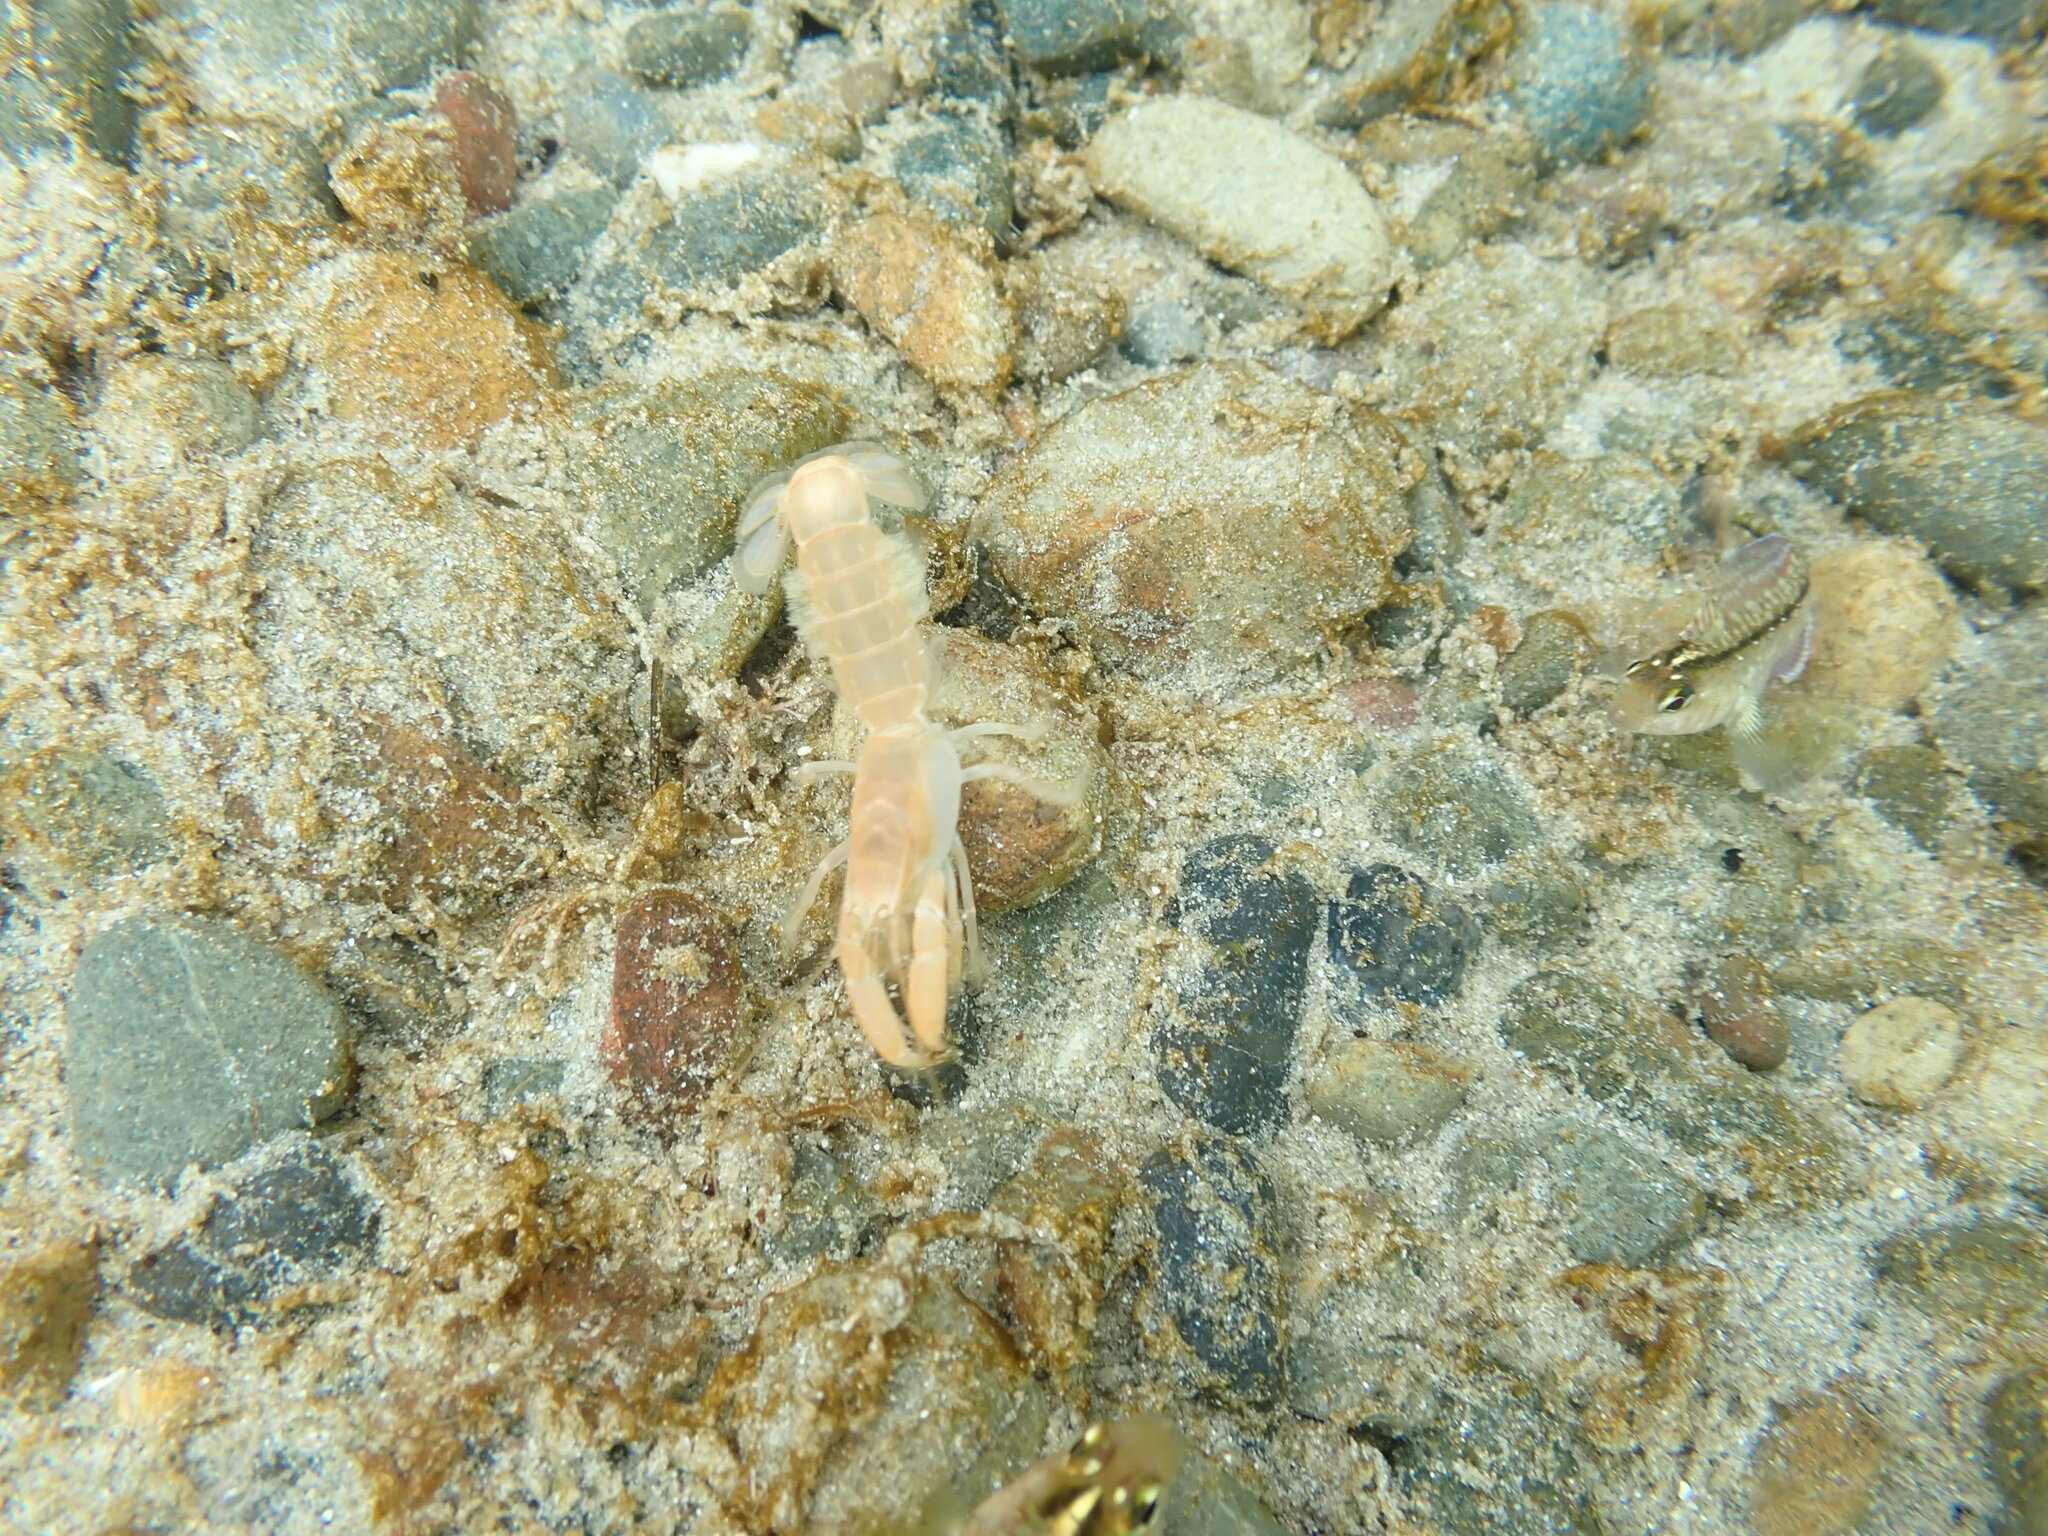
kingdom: Animalia
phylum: Arthropoda
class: Malacostraca
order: Decapoda
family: Upogebiidae
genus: Acutigebia
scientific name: Acutigebia danai
